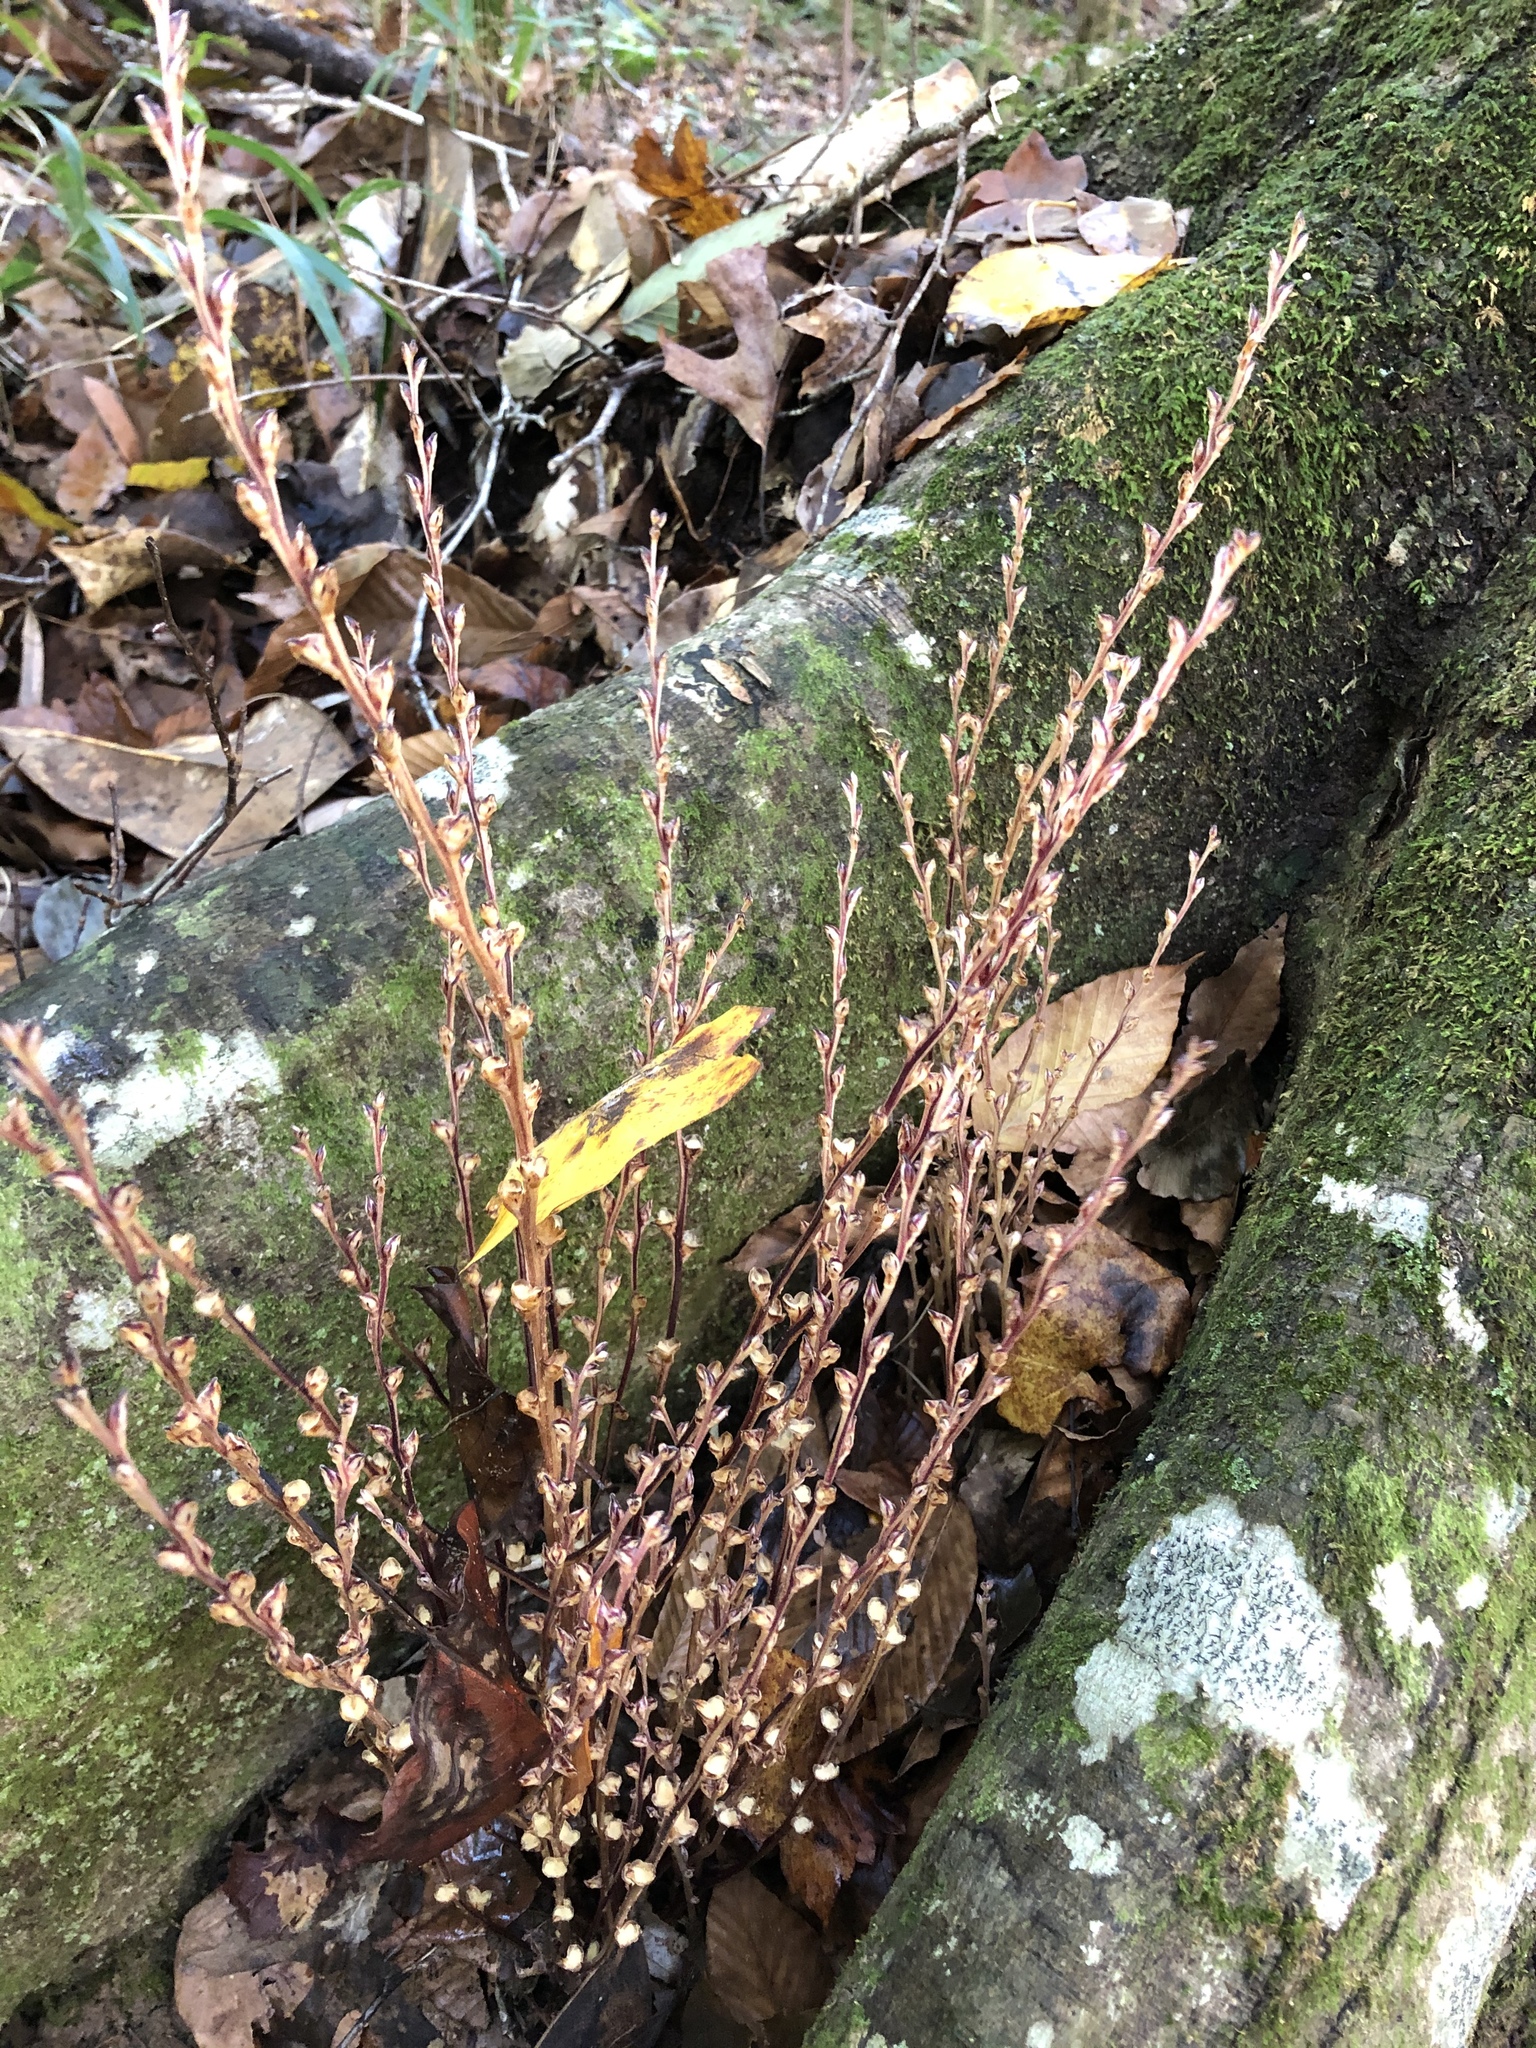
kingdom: Plantae
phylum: Tracheophyta
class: Magnoliopsida
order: Lamiales
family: Orobanchaceae
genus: Epifagus
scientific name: Epifagus virginiana
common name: Beechdrops
